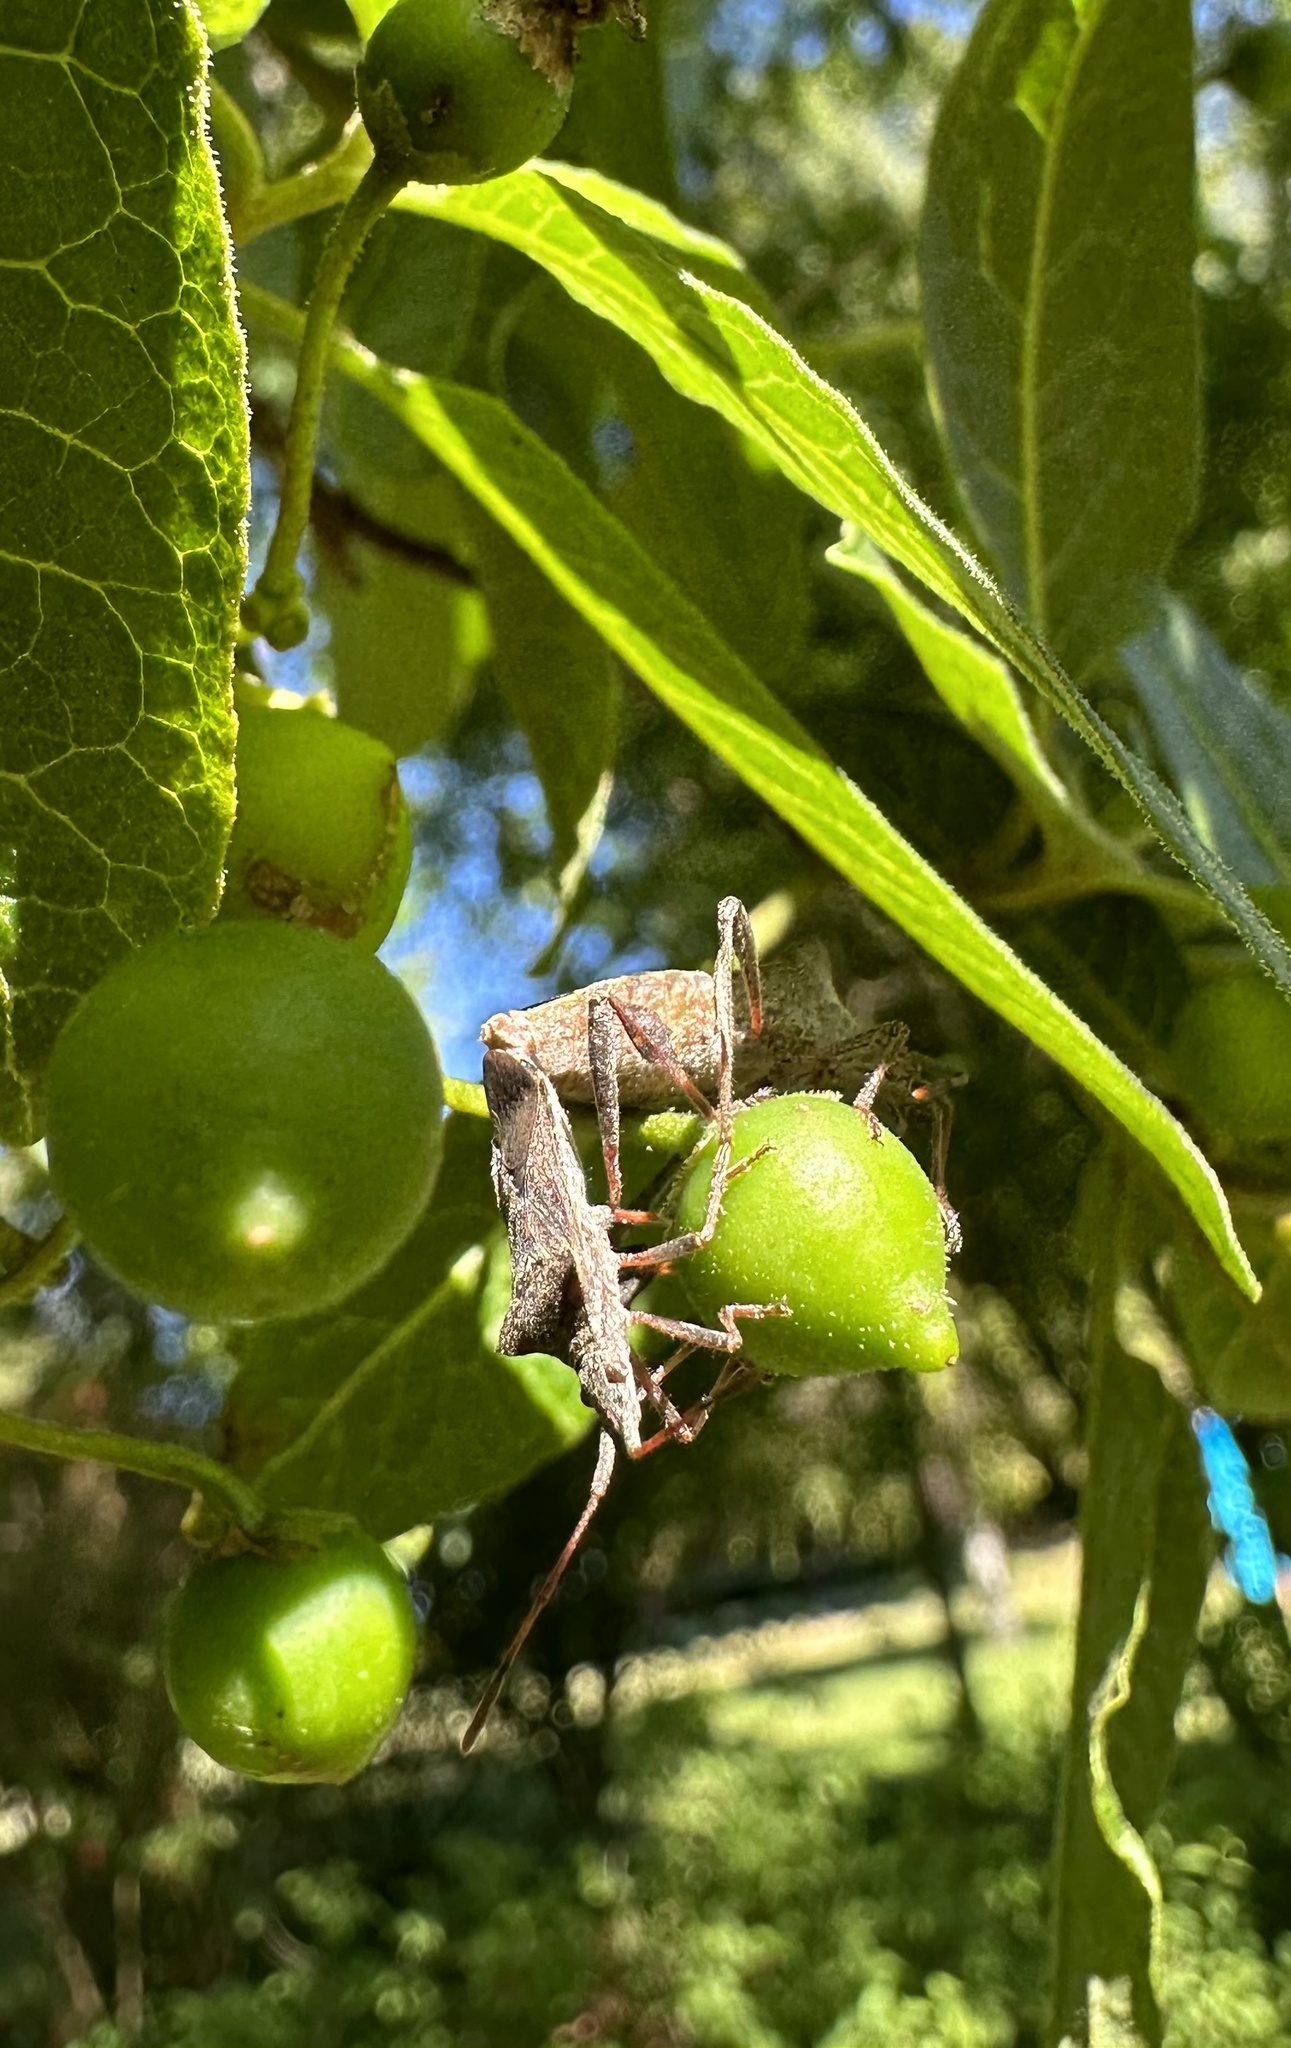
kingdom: Animalia
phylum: Arthropoda
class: Insecta
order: Hemiptera
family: Coreidae
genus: Leptoglossus
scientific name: Leptoglossus chilensis
